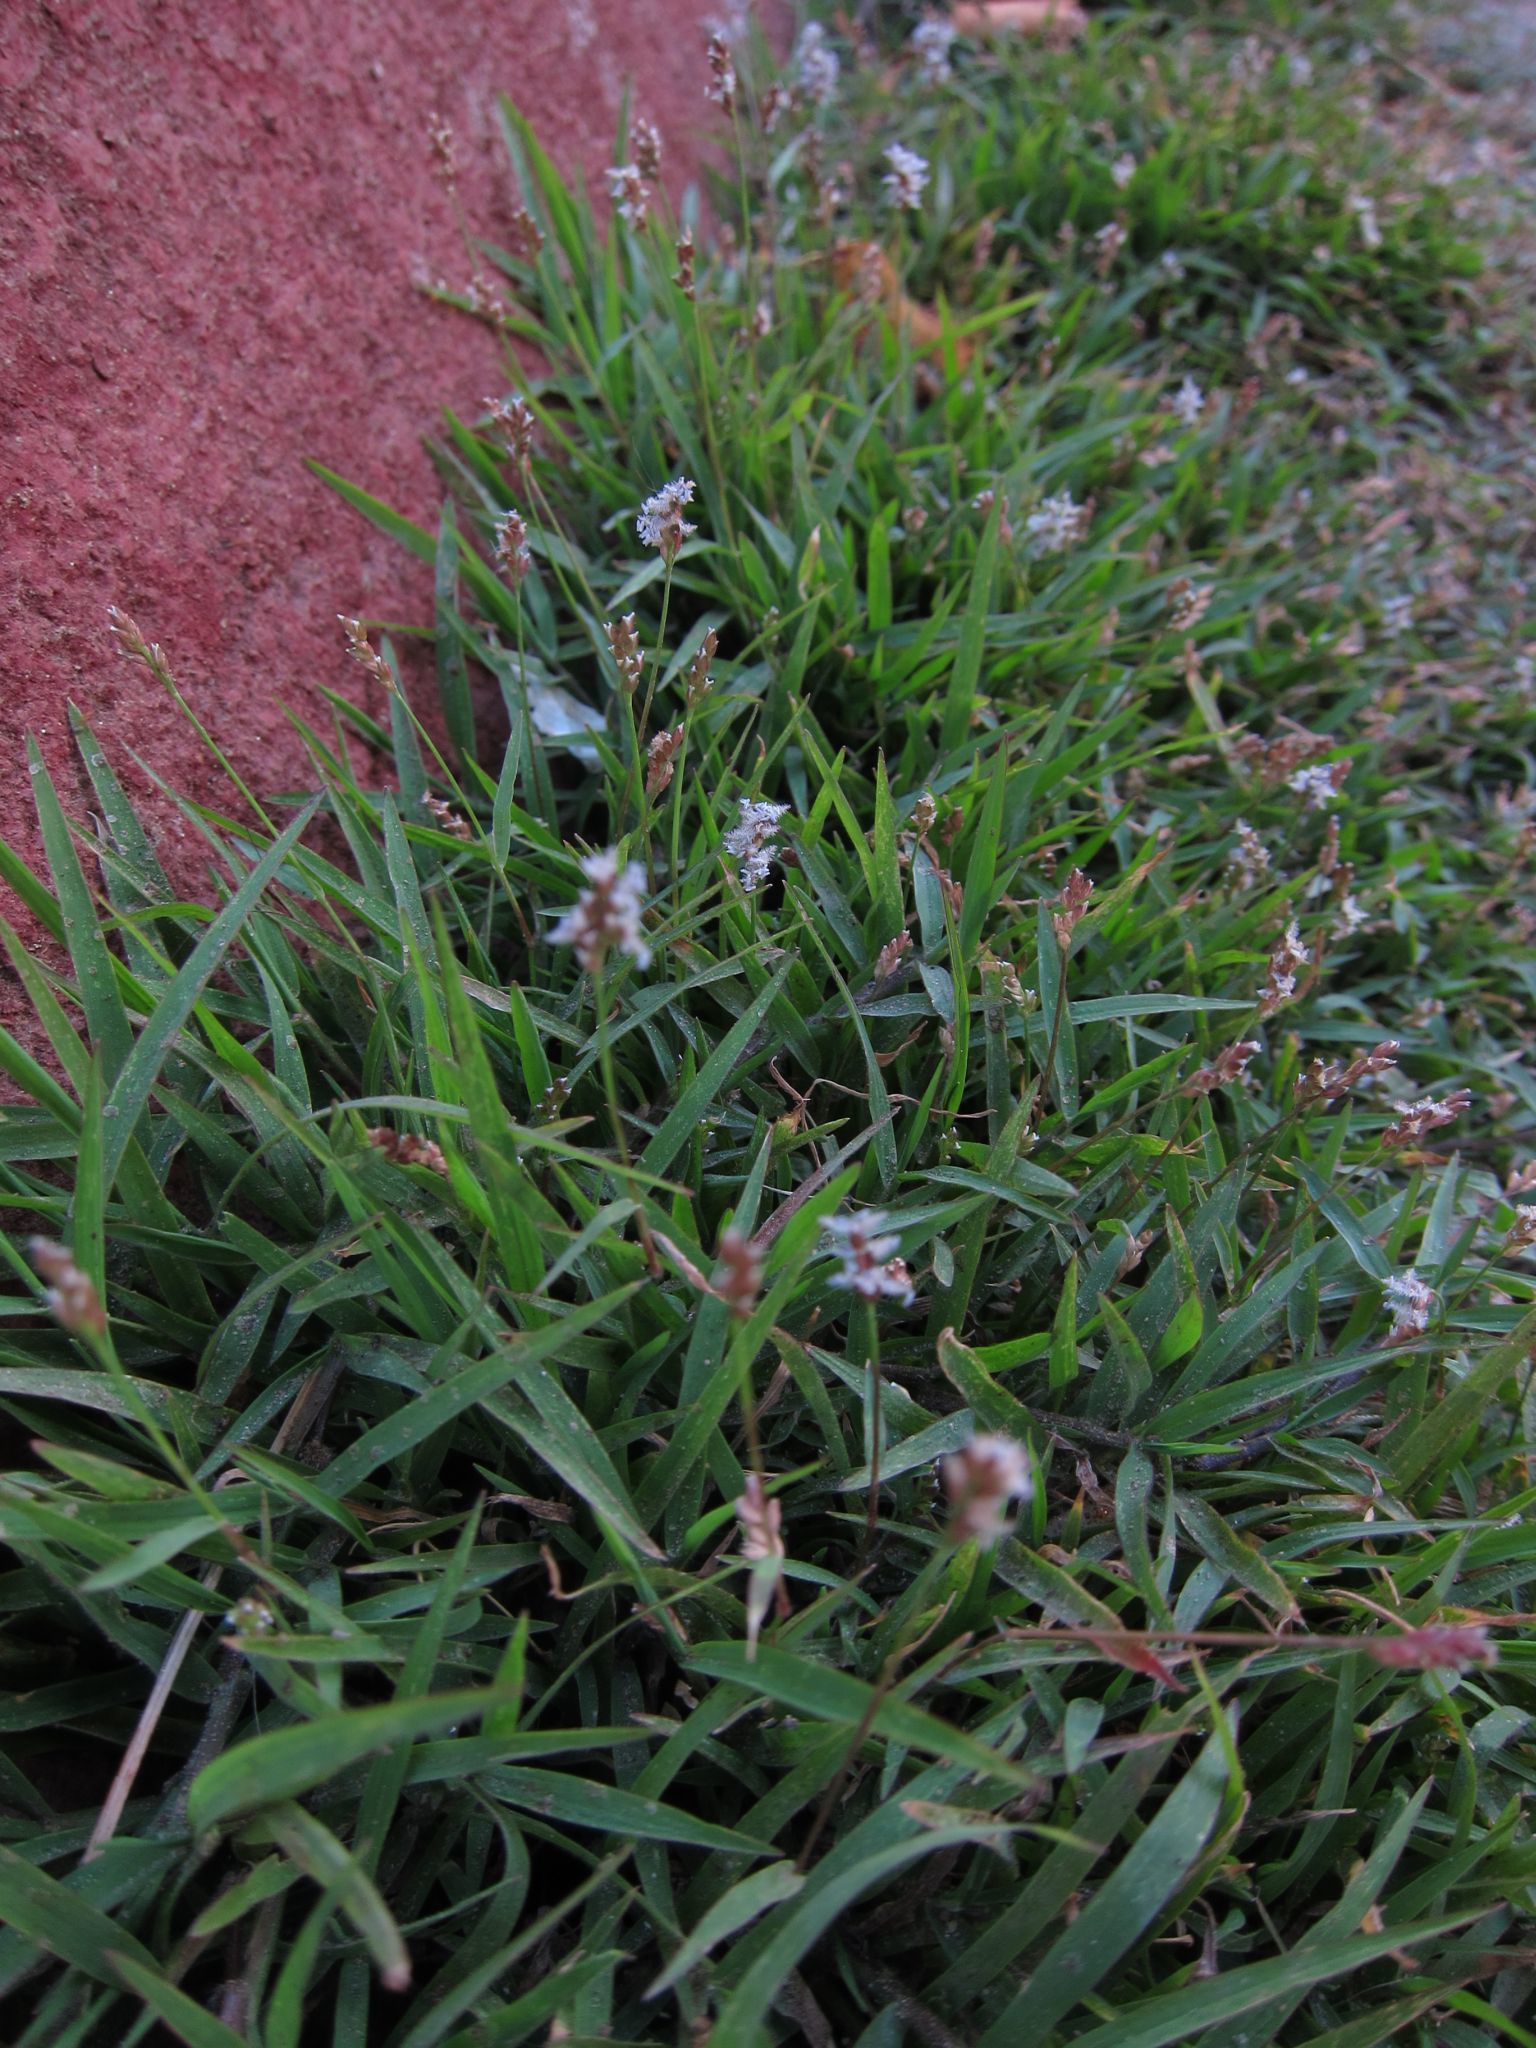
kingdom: Plantae
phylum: Tracheophyta
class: Liliopsida
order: Poales
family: Poaceae
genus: Acroceras
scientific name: Acroceras hubbardii
